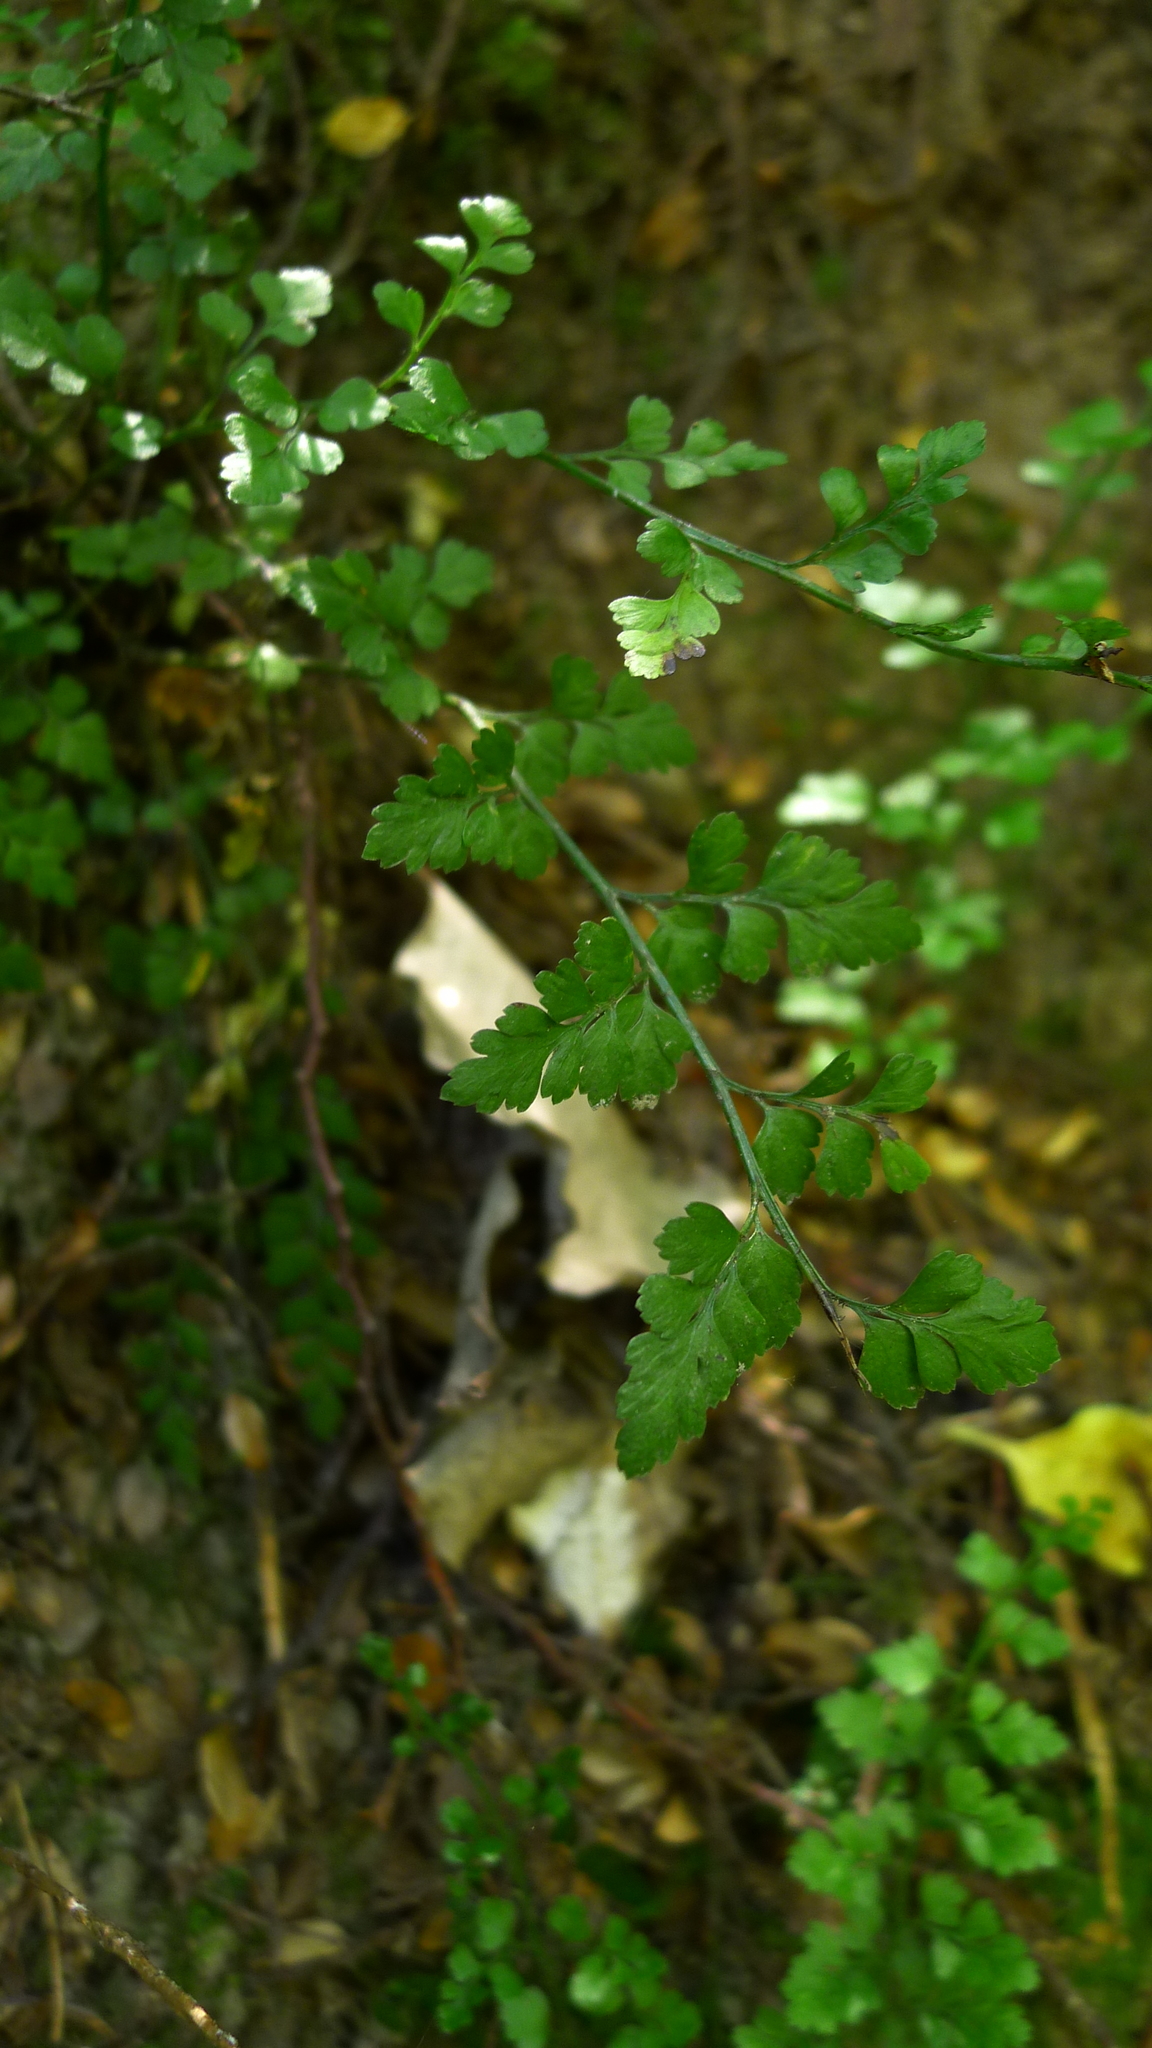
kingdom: Plantae
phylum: Tracheophyta
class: Polypodiopsida
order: Polypodiales
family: Aspleniaceae
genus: Asplenium
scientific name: Asplenium hookerianum
